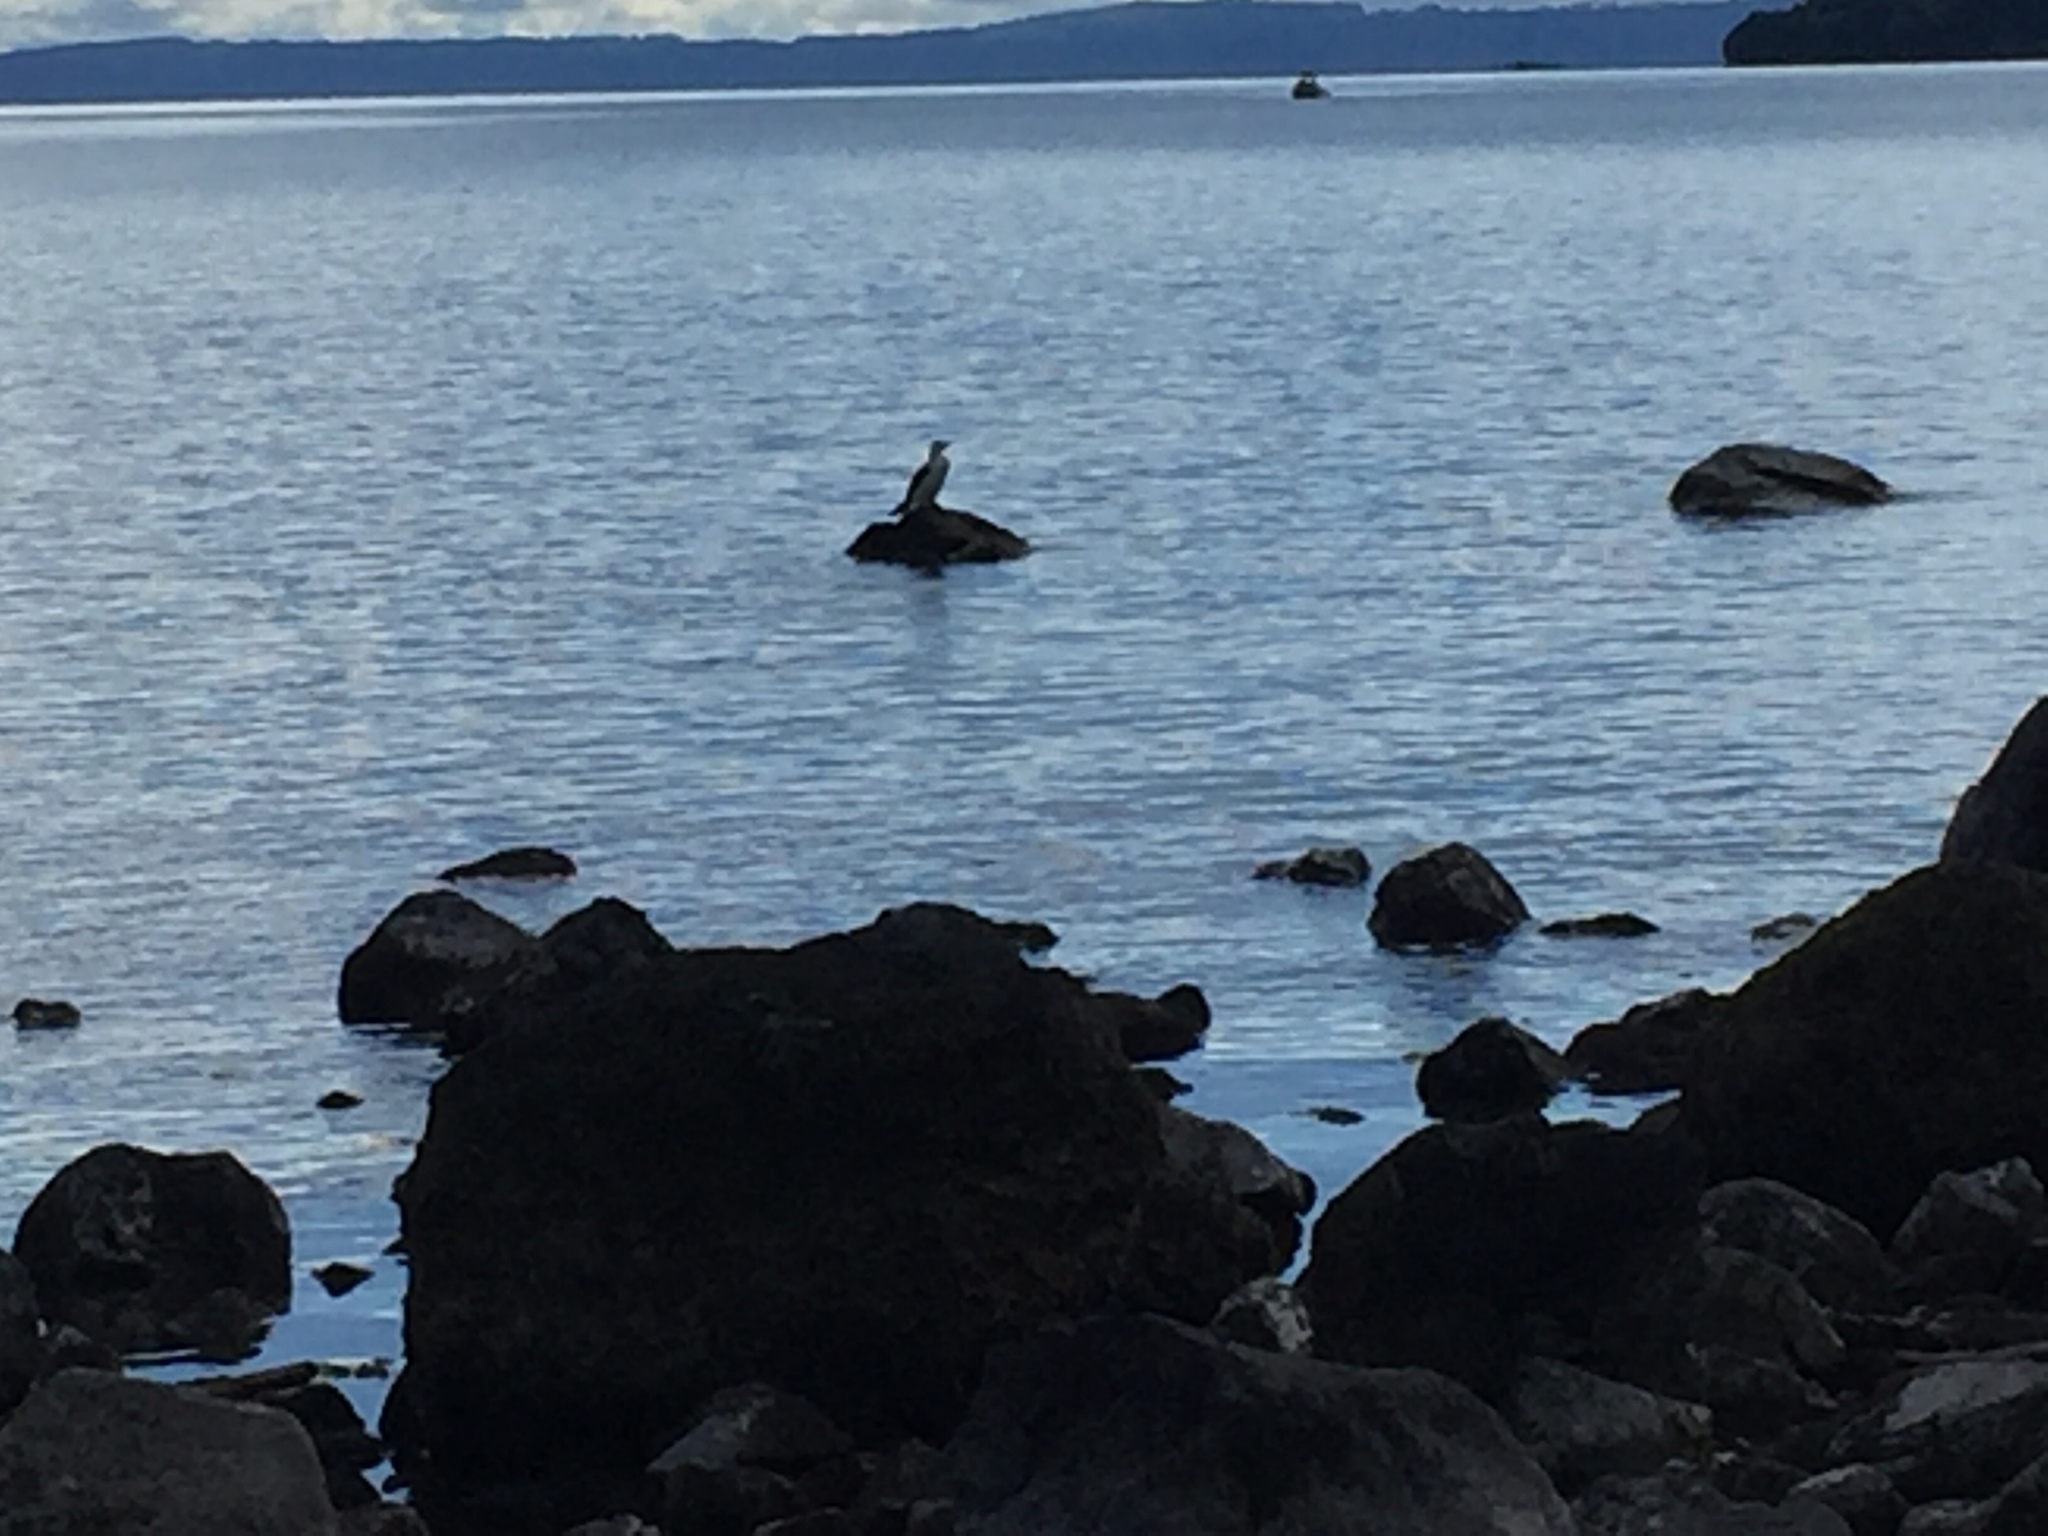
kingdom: Animalia
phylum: Chordata
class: Aves
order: Suliformes
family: Phalacrocoracidae
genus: Phalacrocorax
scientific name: Phalacrocorax varius
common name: Pied cormorant
